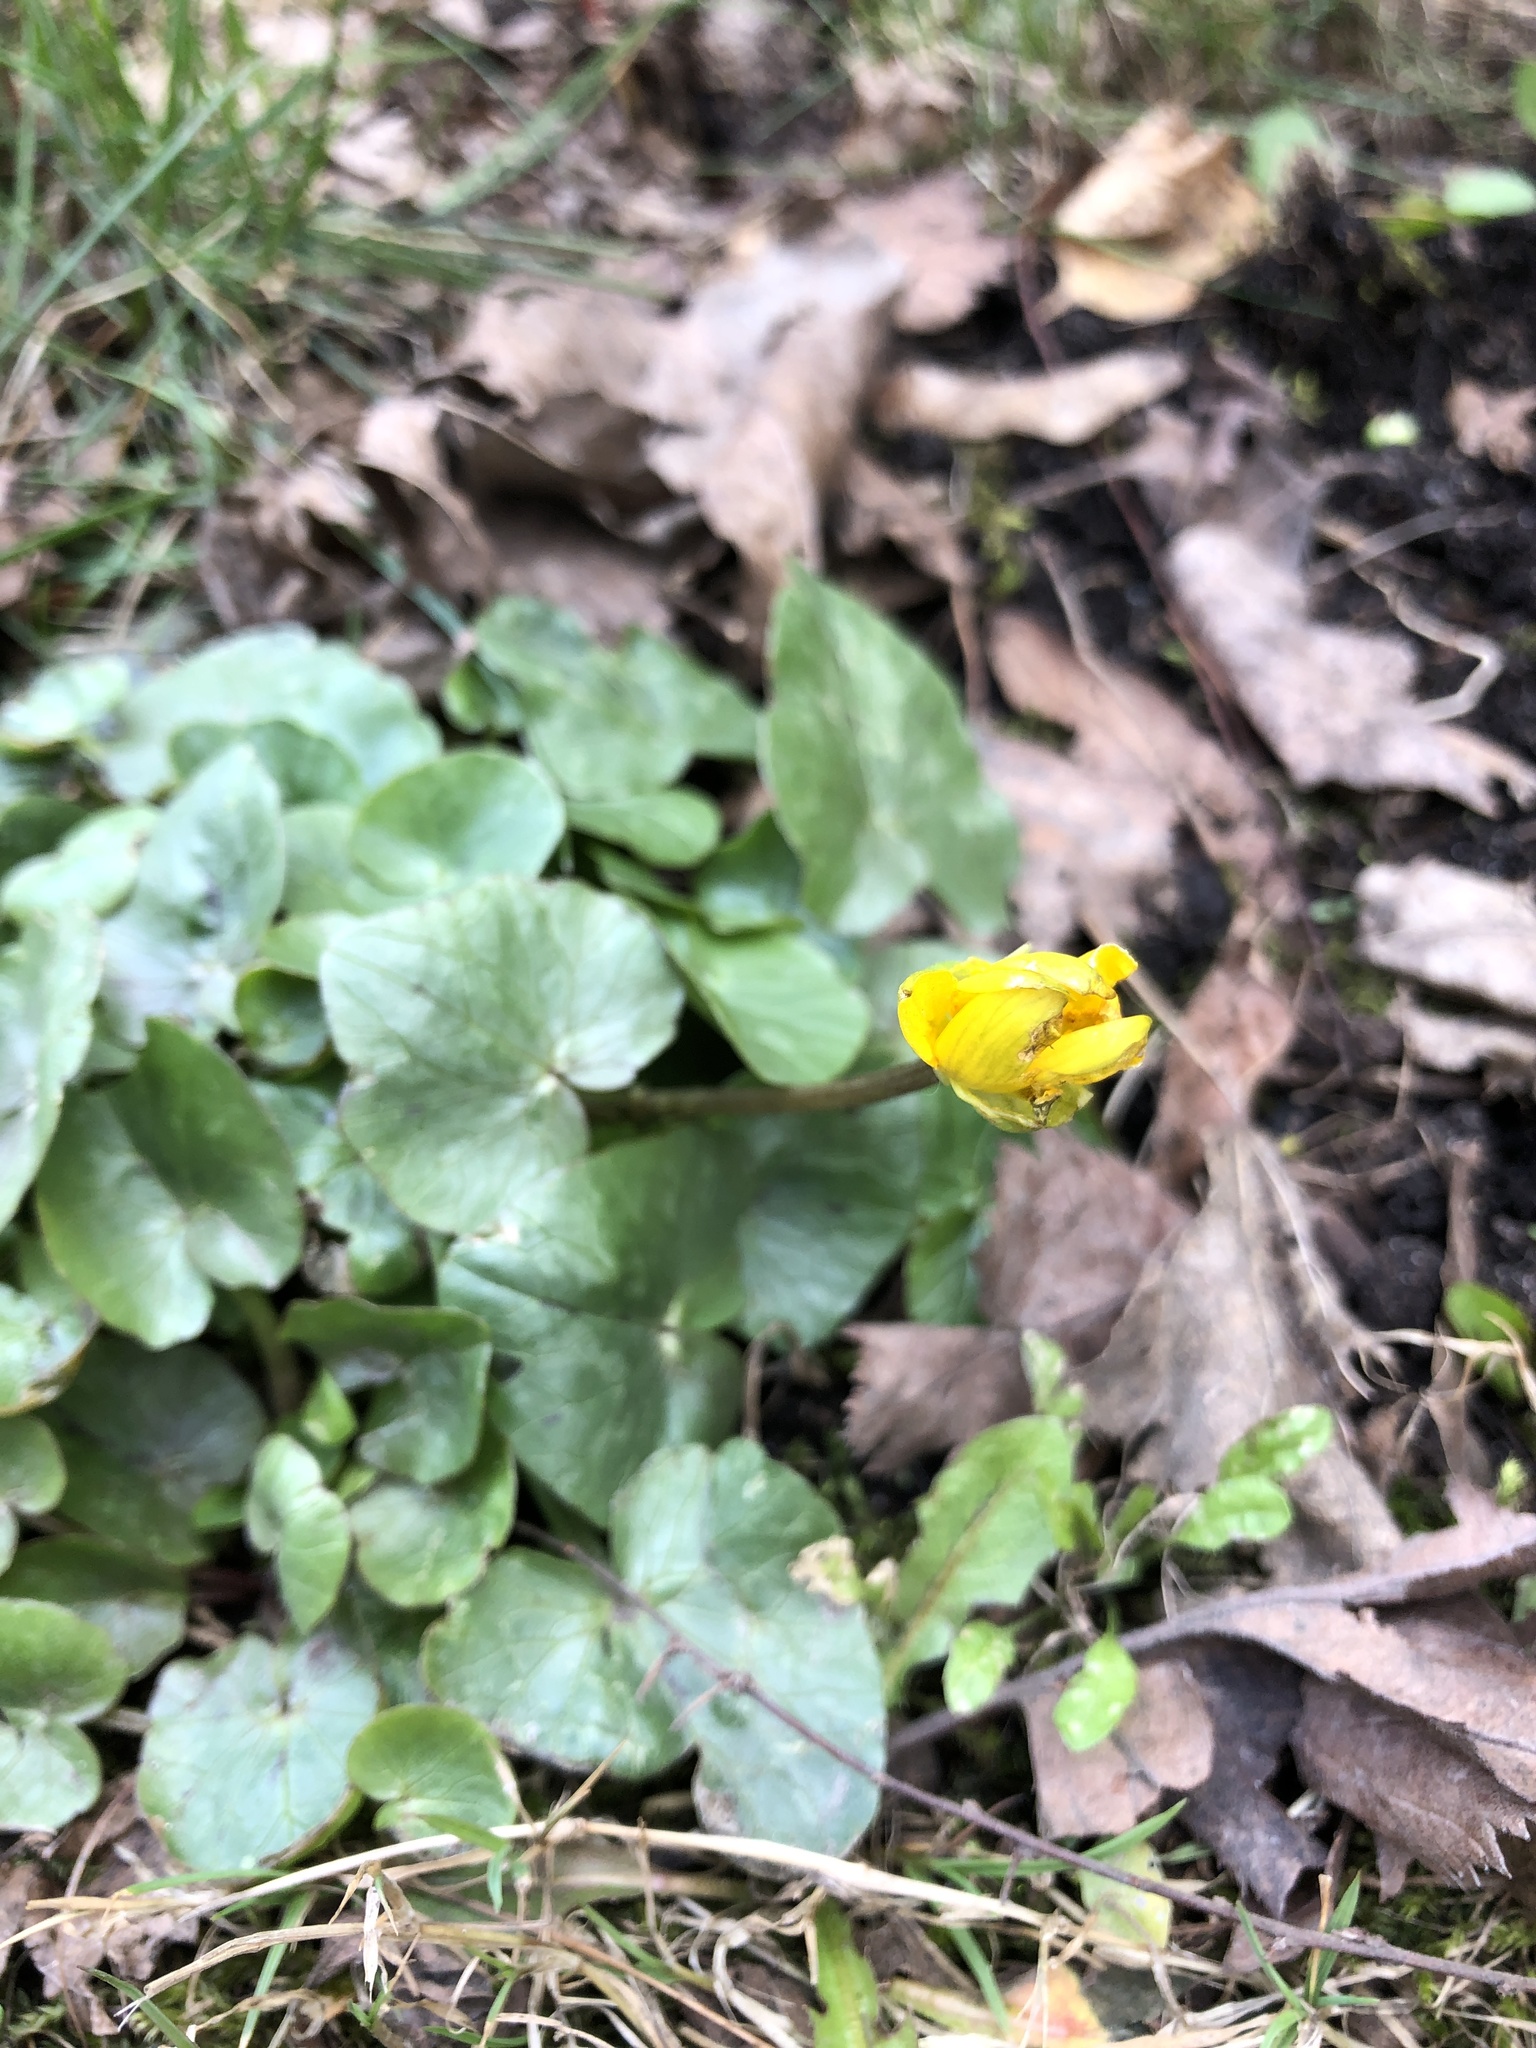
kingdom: Plantae
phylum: Tracheophyta
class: Magnoliopsida
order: Ranunculales
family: Ranunculaceae
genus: Ficaria
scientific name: Ficaria verna
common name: Lesser celandine
